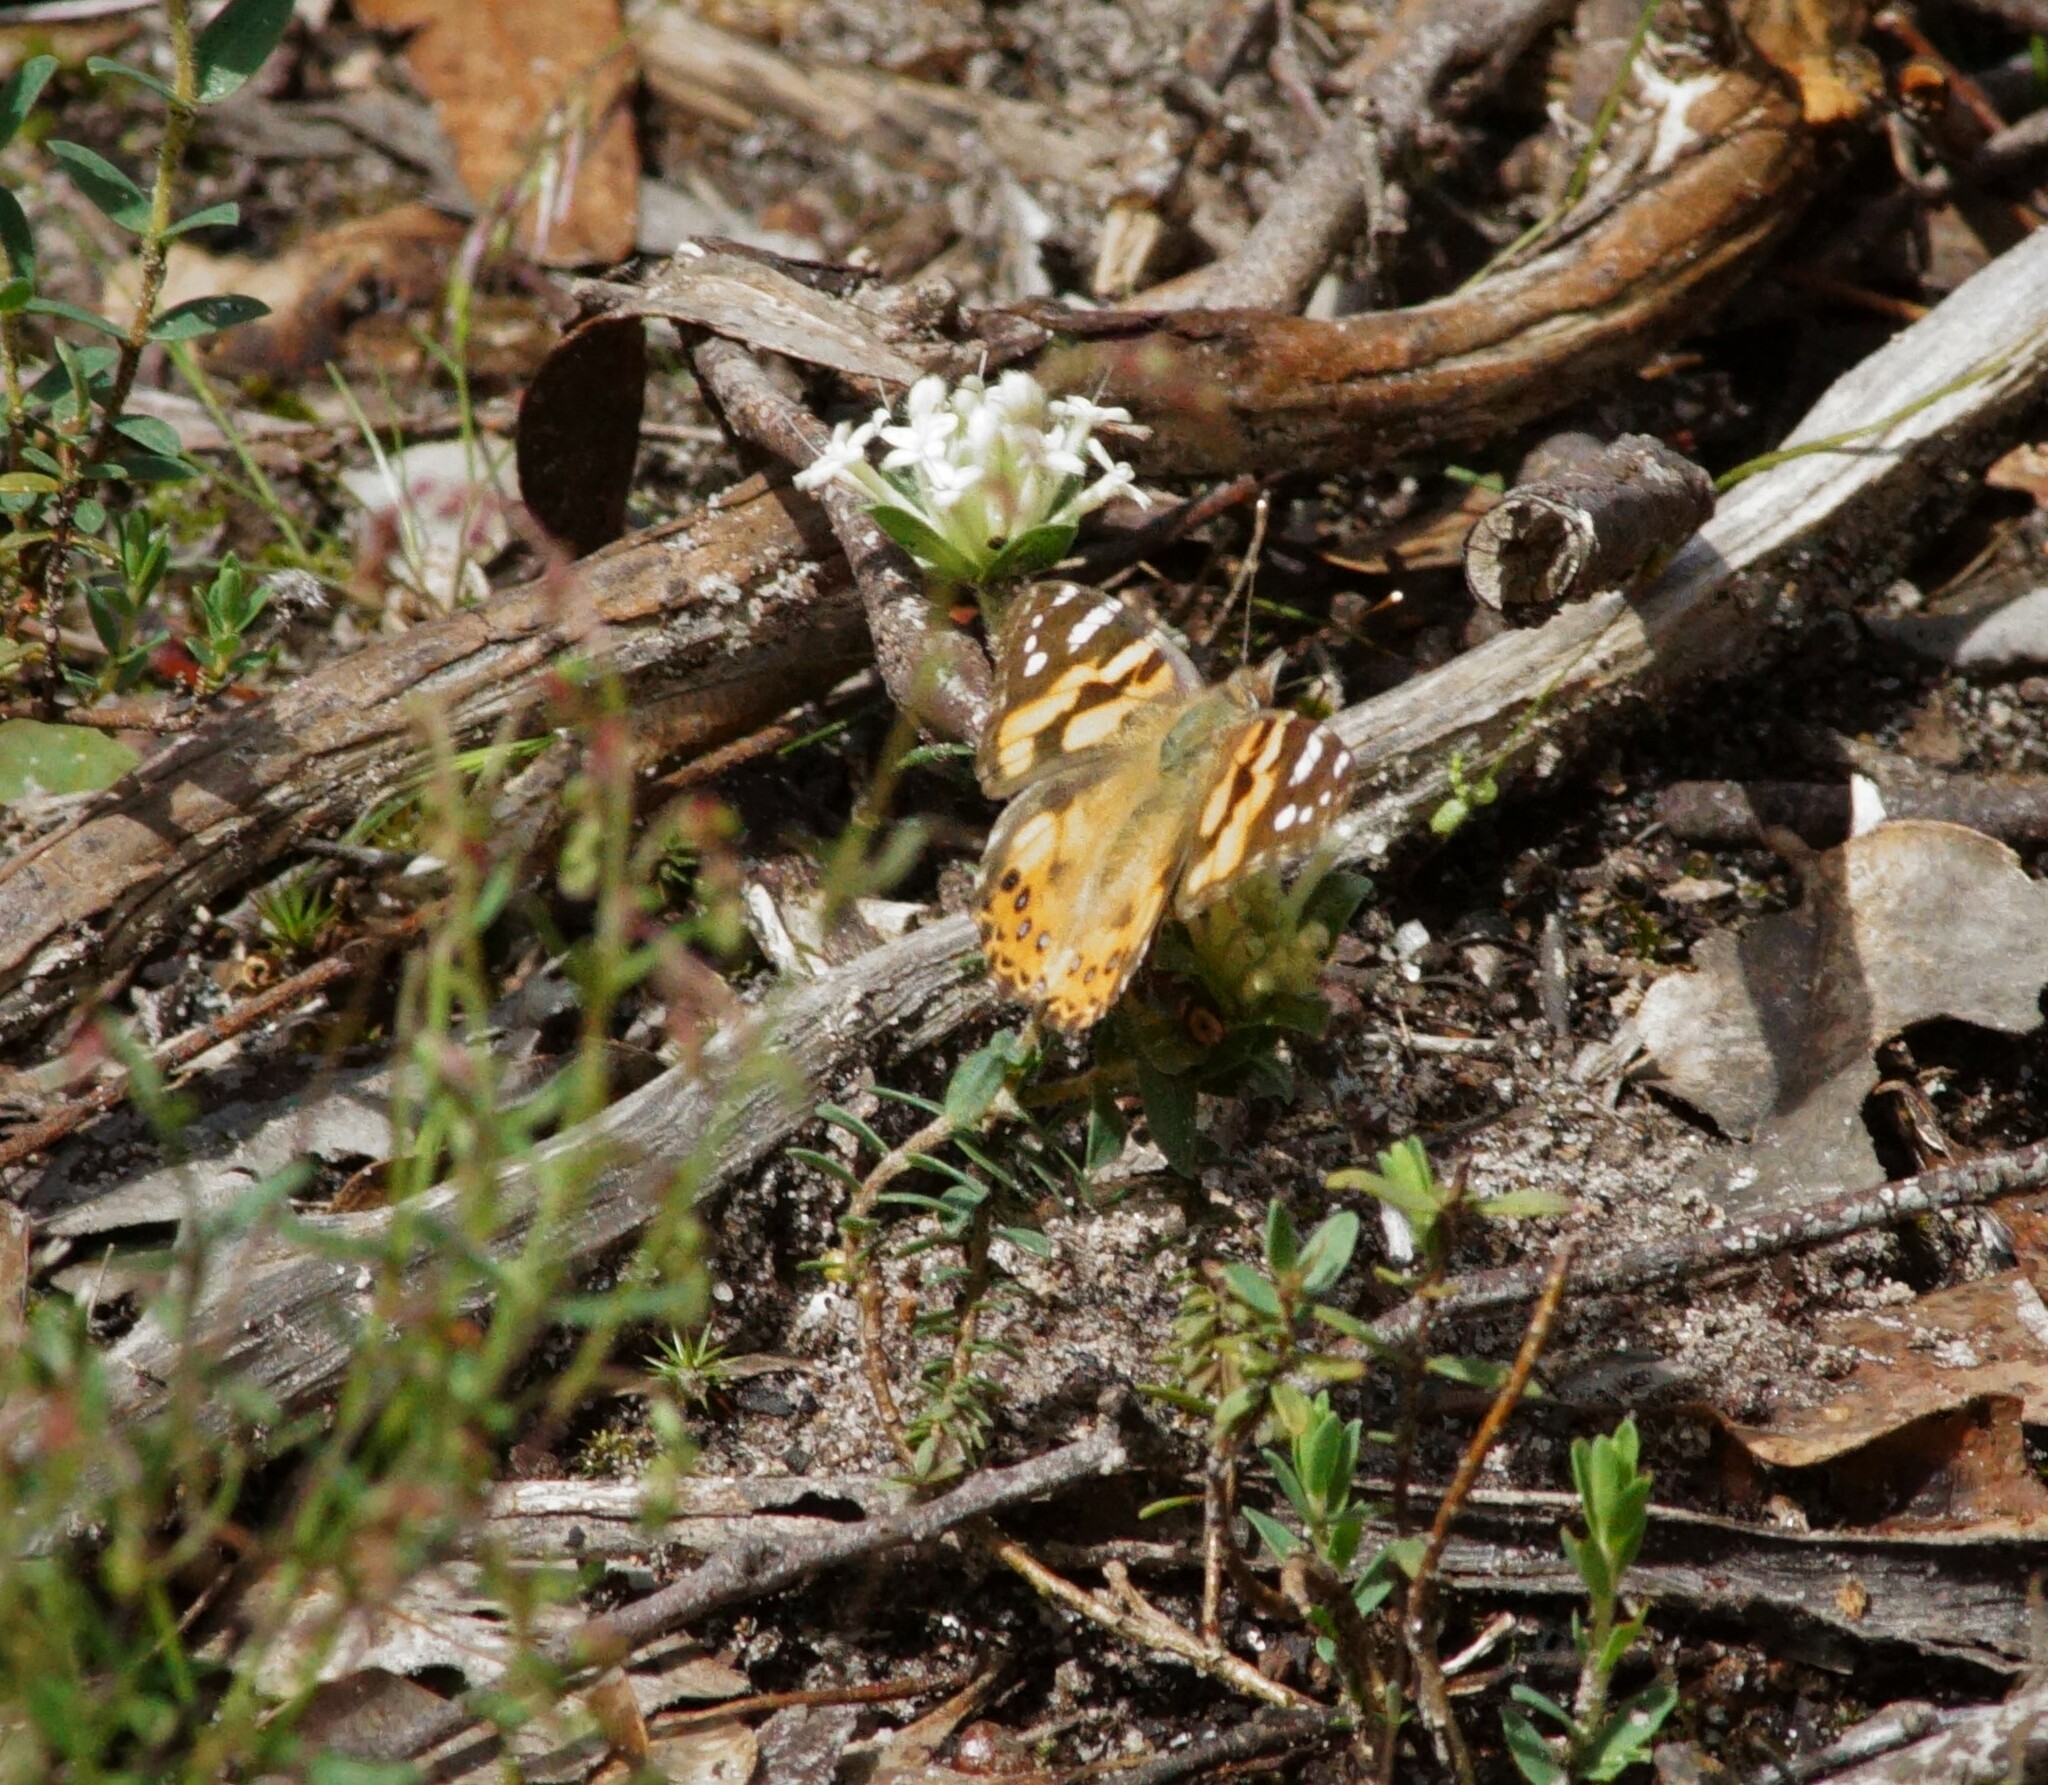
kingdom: Animalia
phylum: Arthropoda
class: Insecta
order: Lepidoptera
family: Nymphalidae
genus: Vanessa
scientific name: Vanessa kershawi
